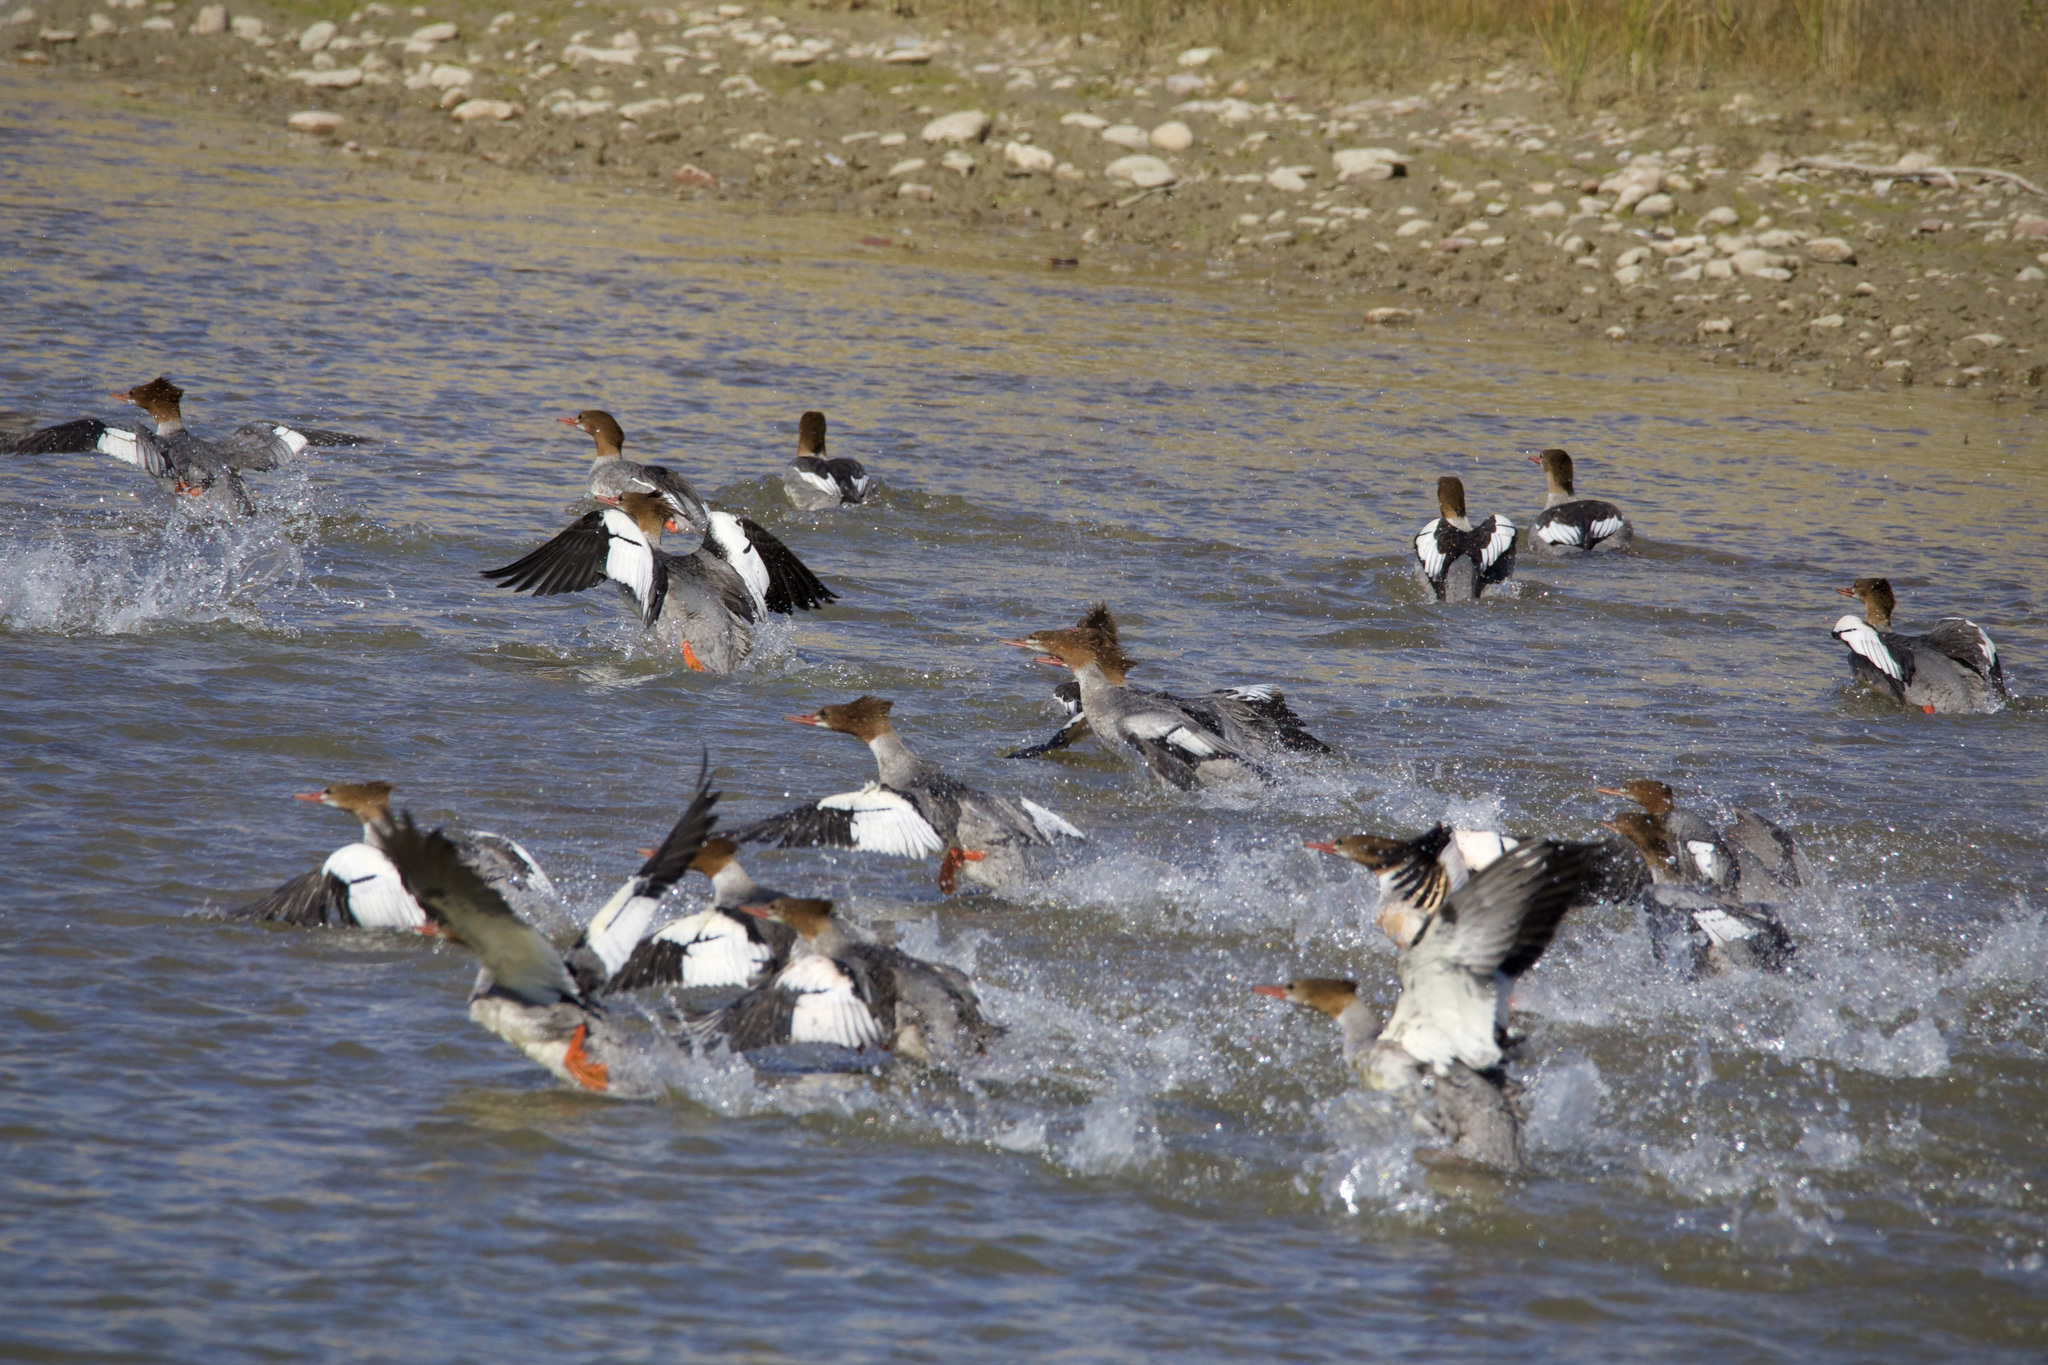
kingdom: Animalia
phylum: Chordata
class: Aves
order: Anseriformes
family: Anatidae
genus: Mergus
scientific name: Mergus merganser
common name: Common merganser
